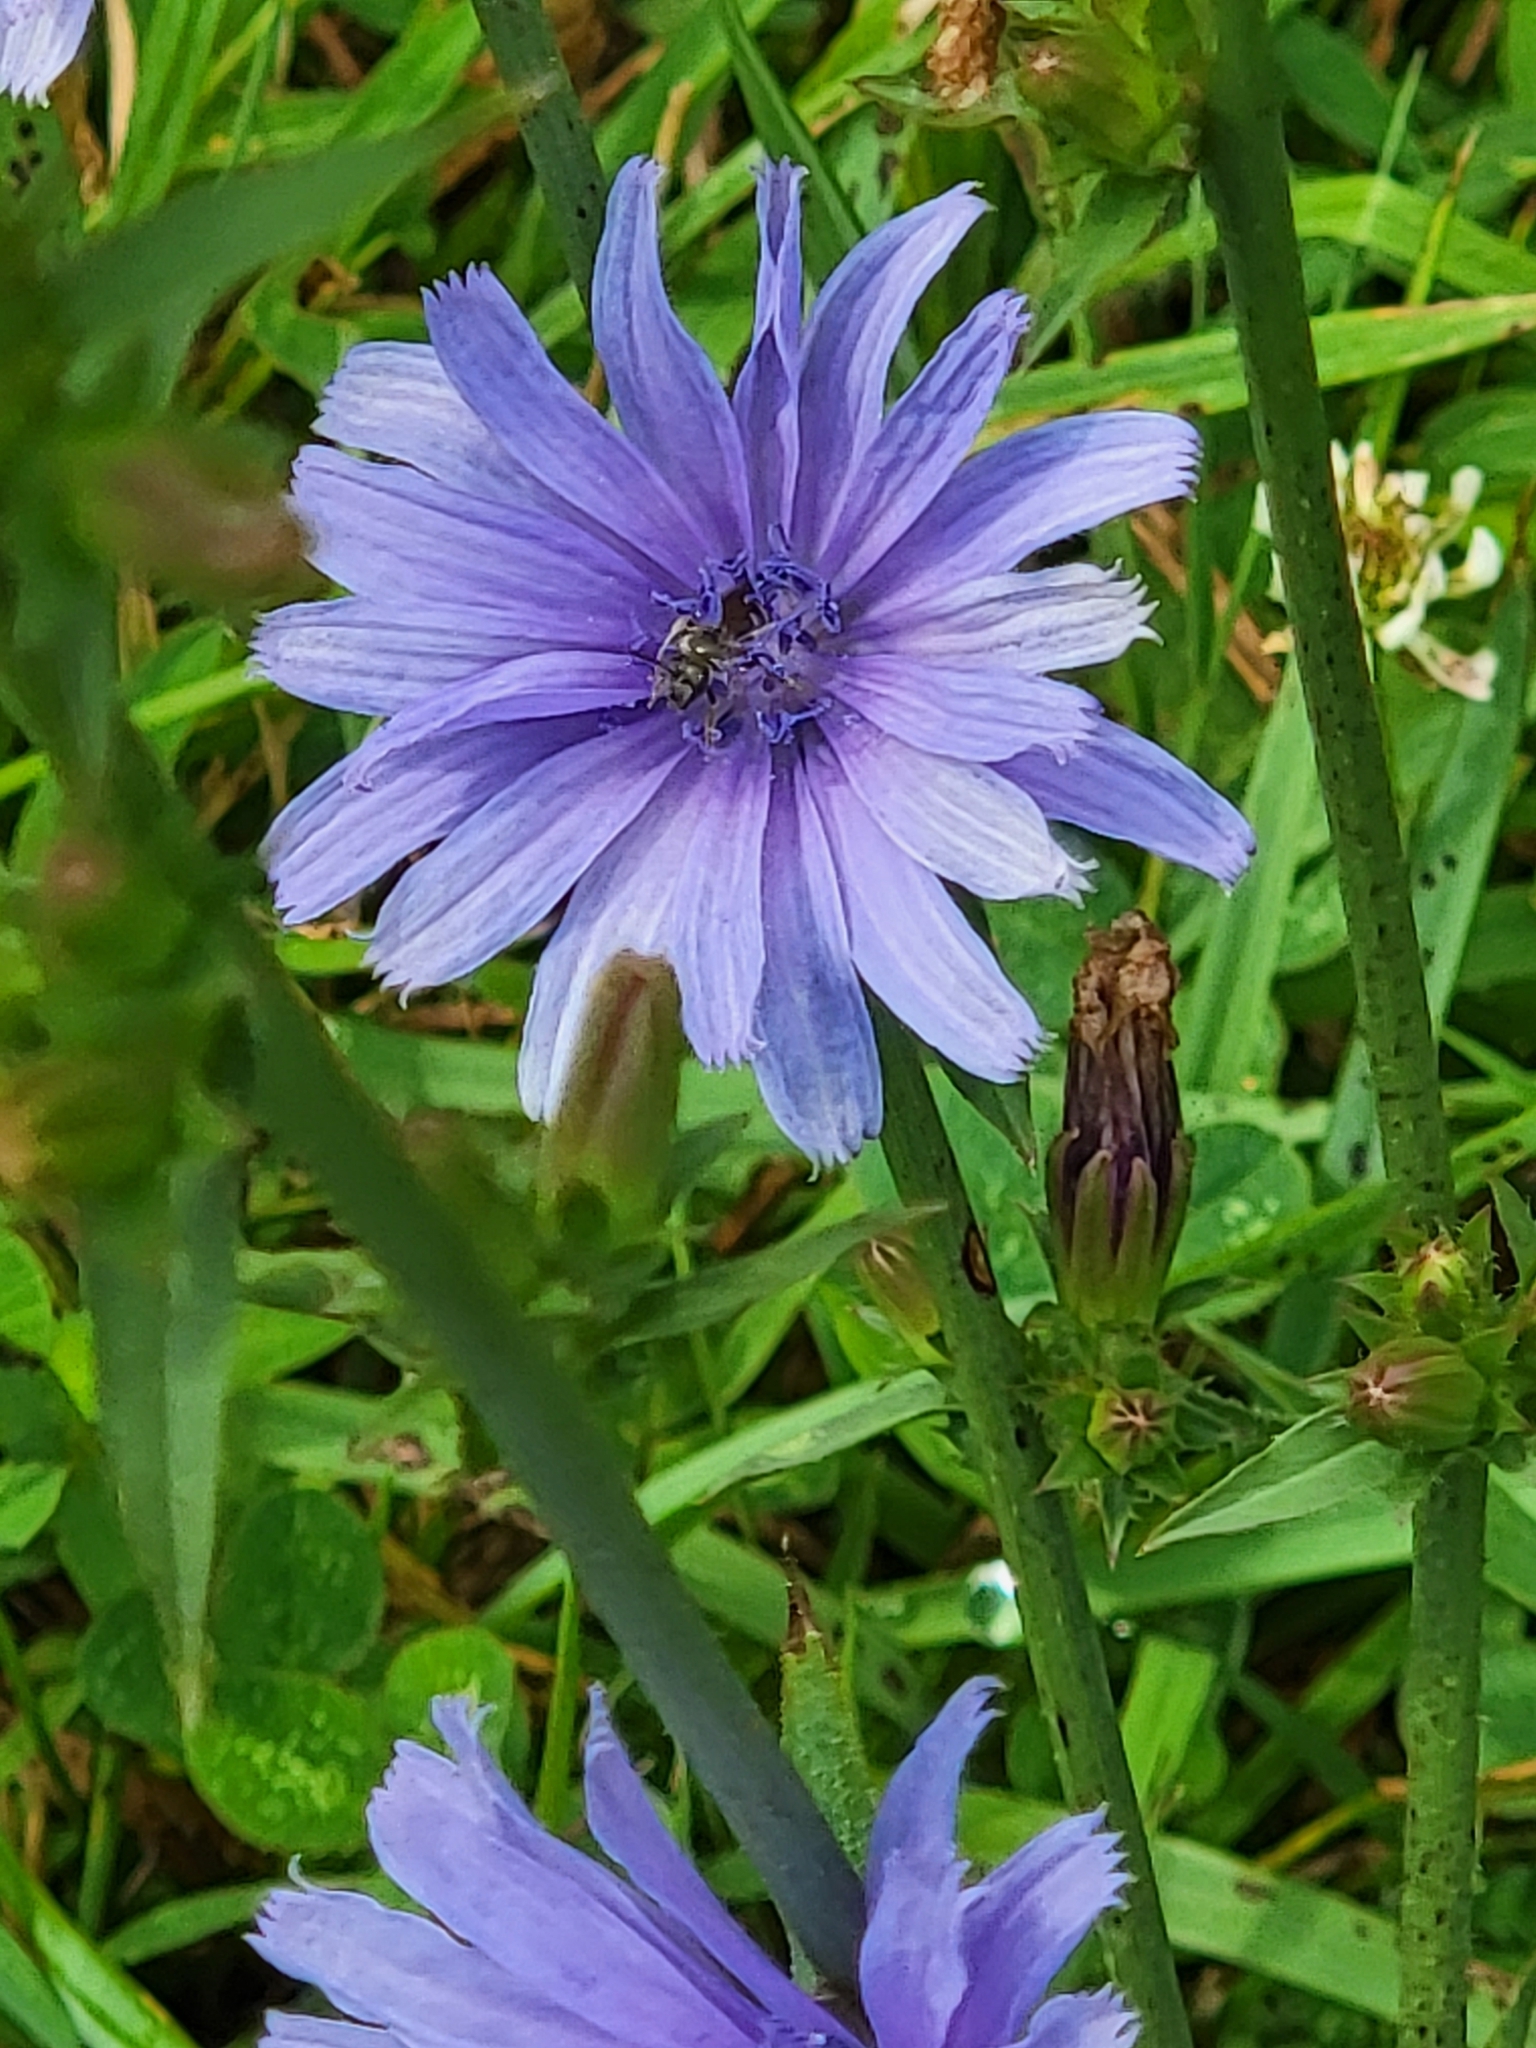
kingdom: Plantae
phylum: Tracheophyta
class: Magnoliopsida
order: Asterales
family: Asteraceae
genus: Cichorium
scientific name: Cichorium intybus
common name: Chicory
